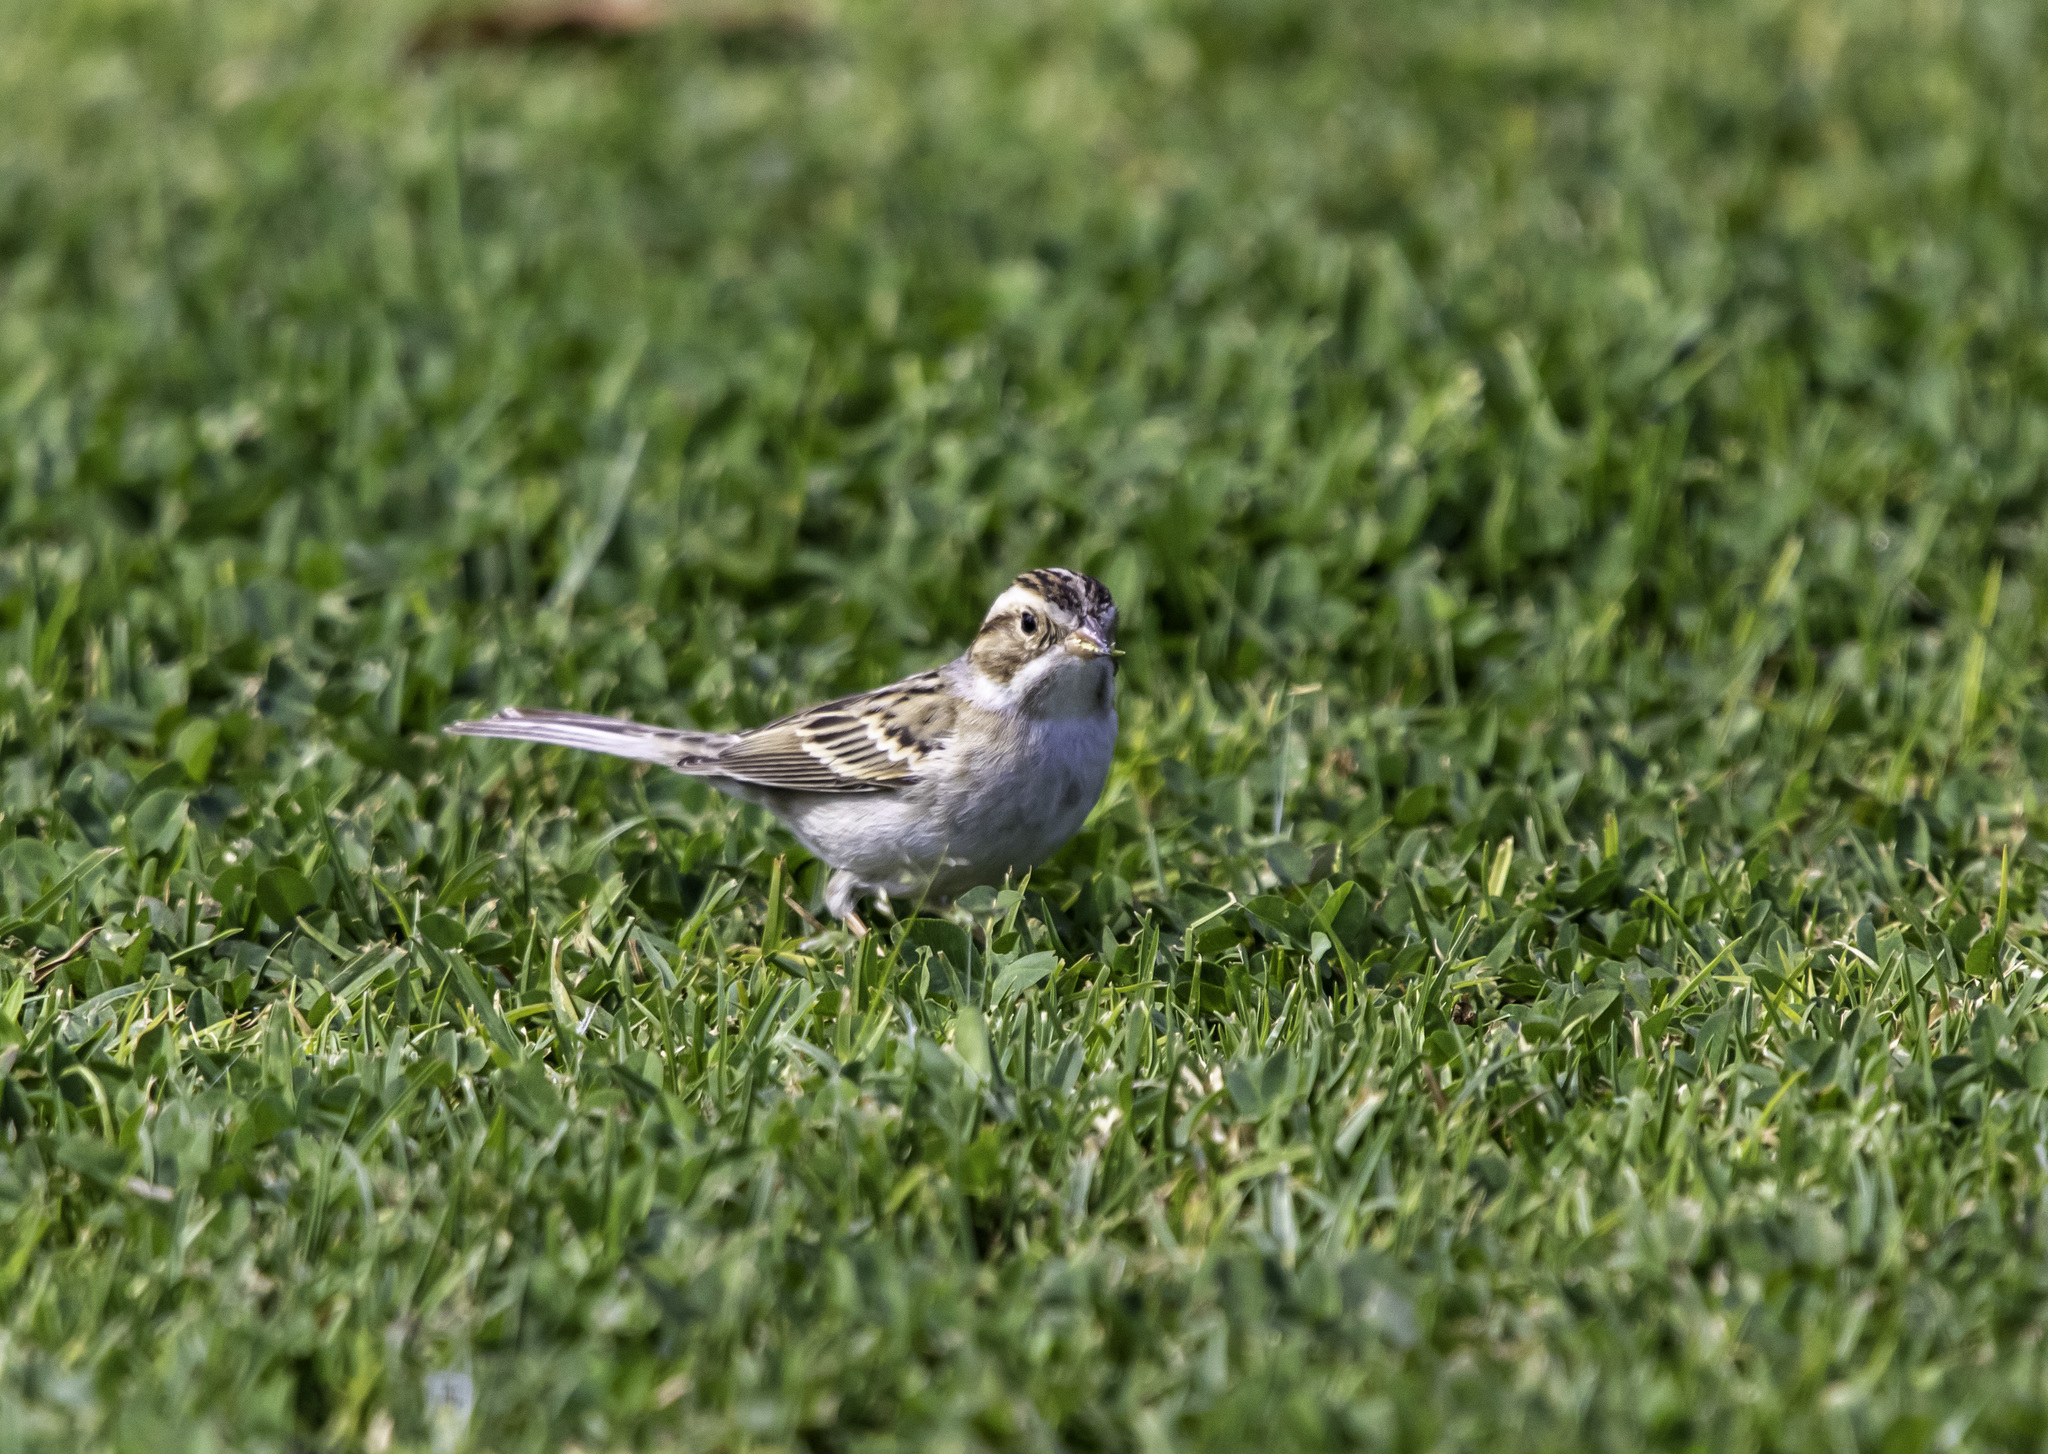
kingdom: Animalia
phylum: Chordata
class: Aves
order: Passeriformes
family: Passerellidae
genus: Spizella
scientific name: Spizella pallida
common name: Clay-colored sparrow
